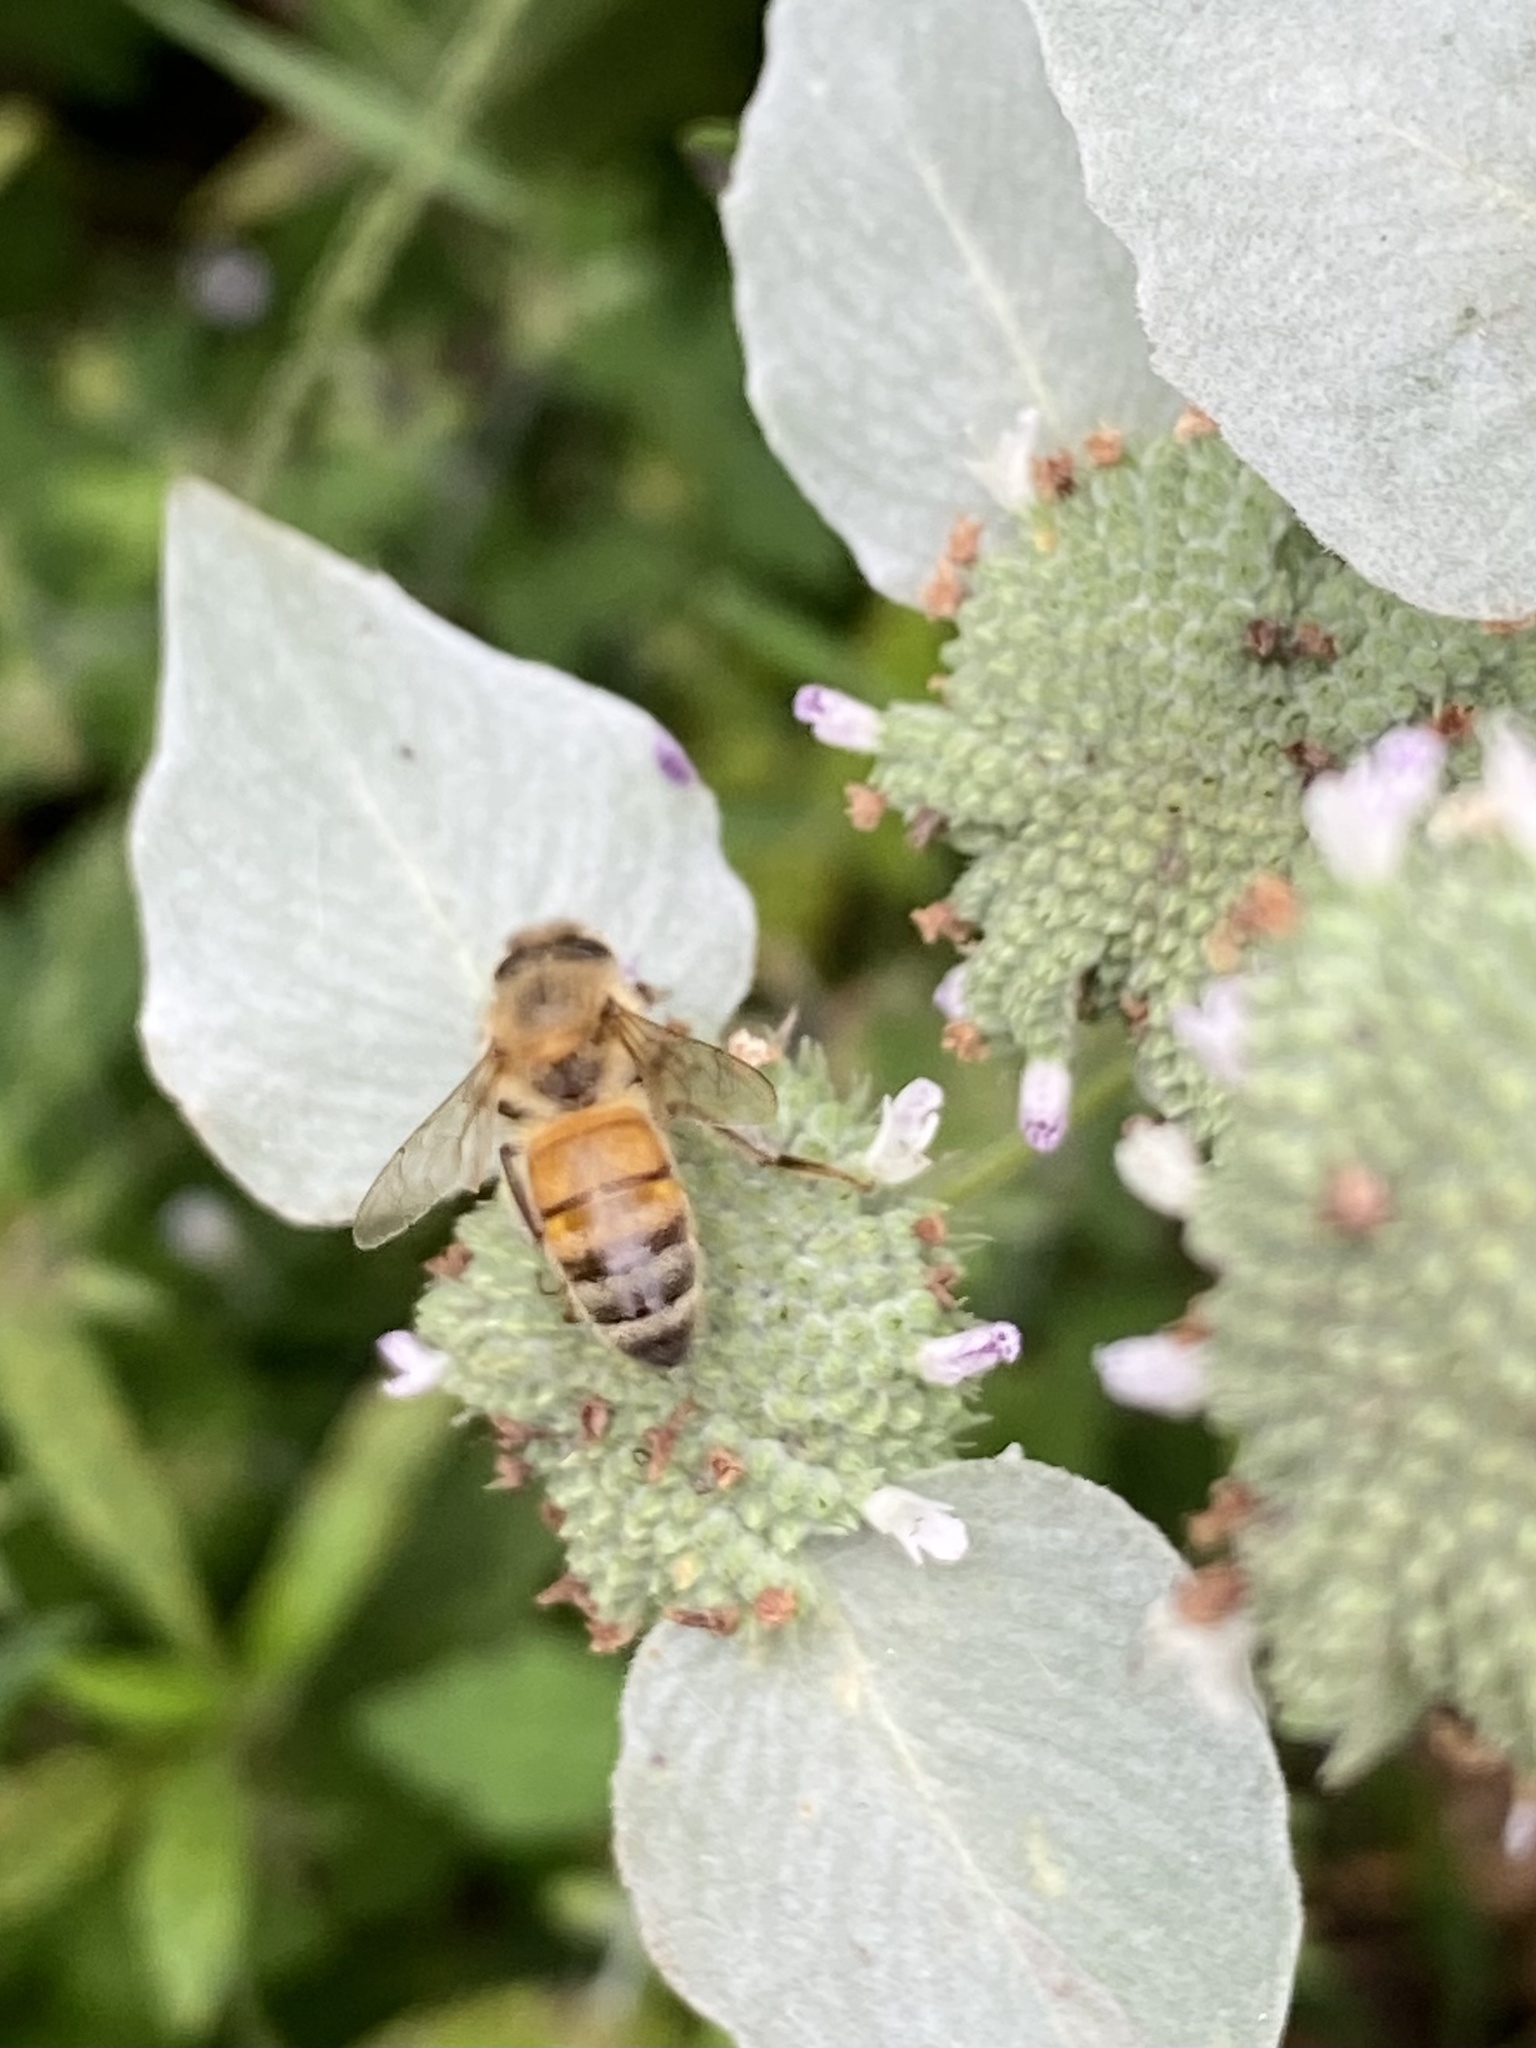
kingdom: Animalia
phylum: Arthropoda
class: Insecta
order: Hymenoptera
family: Apidae
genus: Apis
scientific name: Apis mellifera
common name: Honey bee
